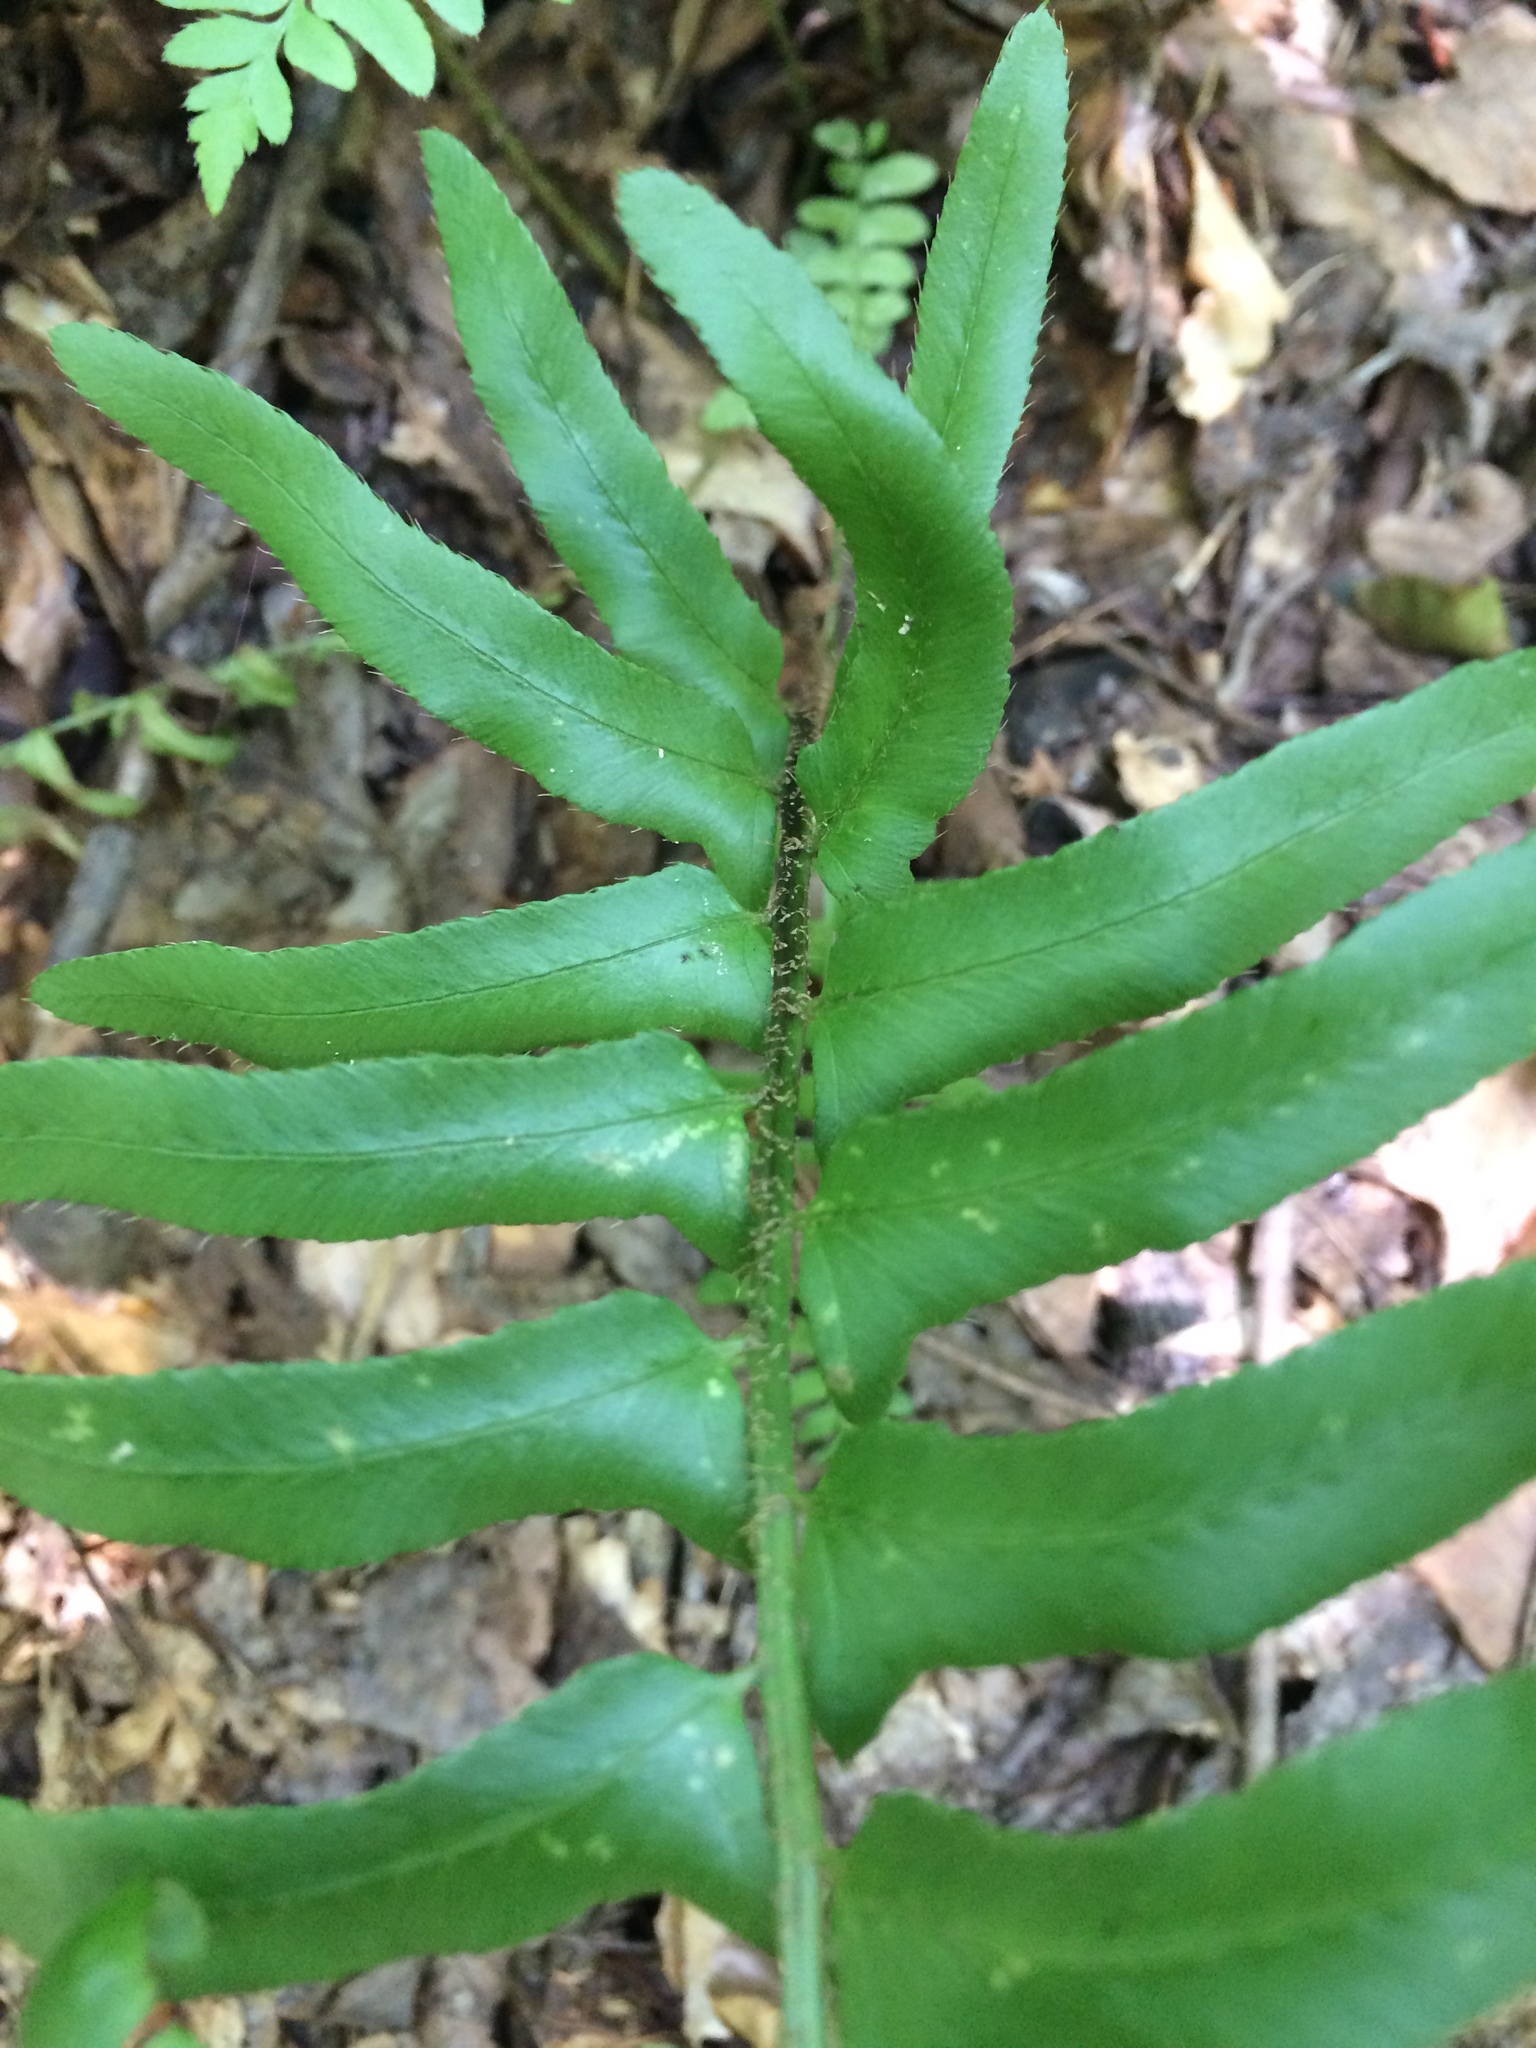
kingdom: Plantae
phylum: Tracheophyta
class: Polypodiopsida
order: Polypodiales
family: Dryopteridaceae
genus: Polystichum
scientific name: Polystichum acrostichoides
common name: Christmas fern
